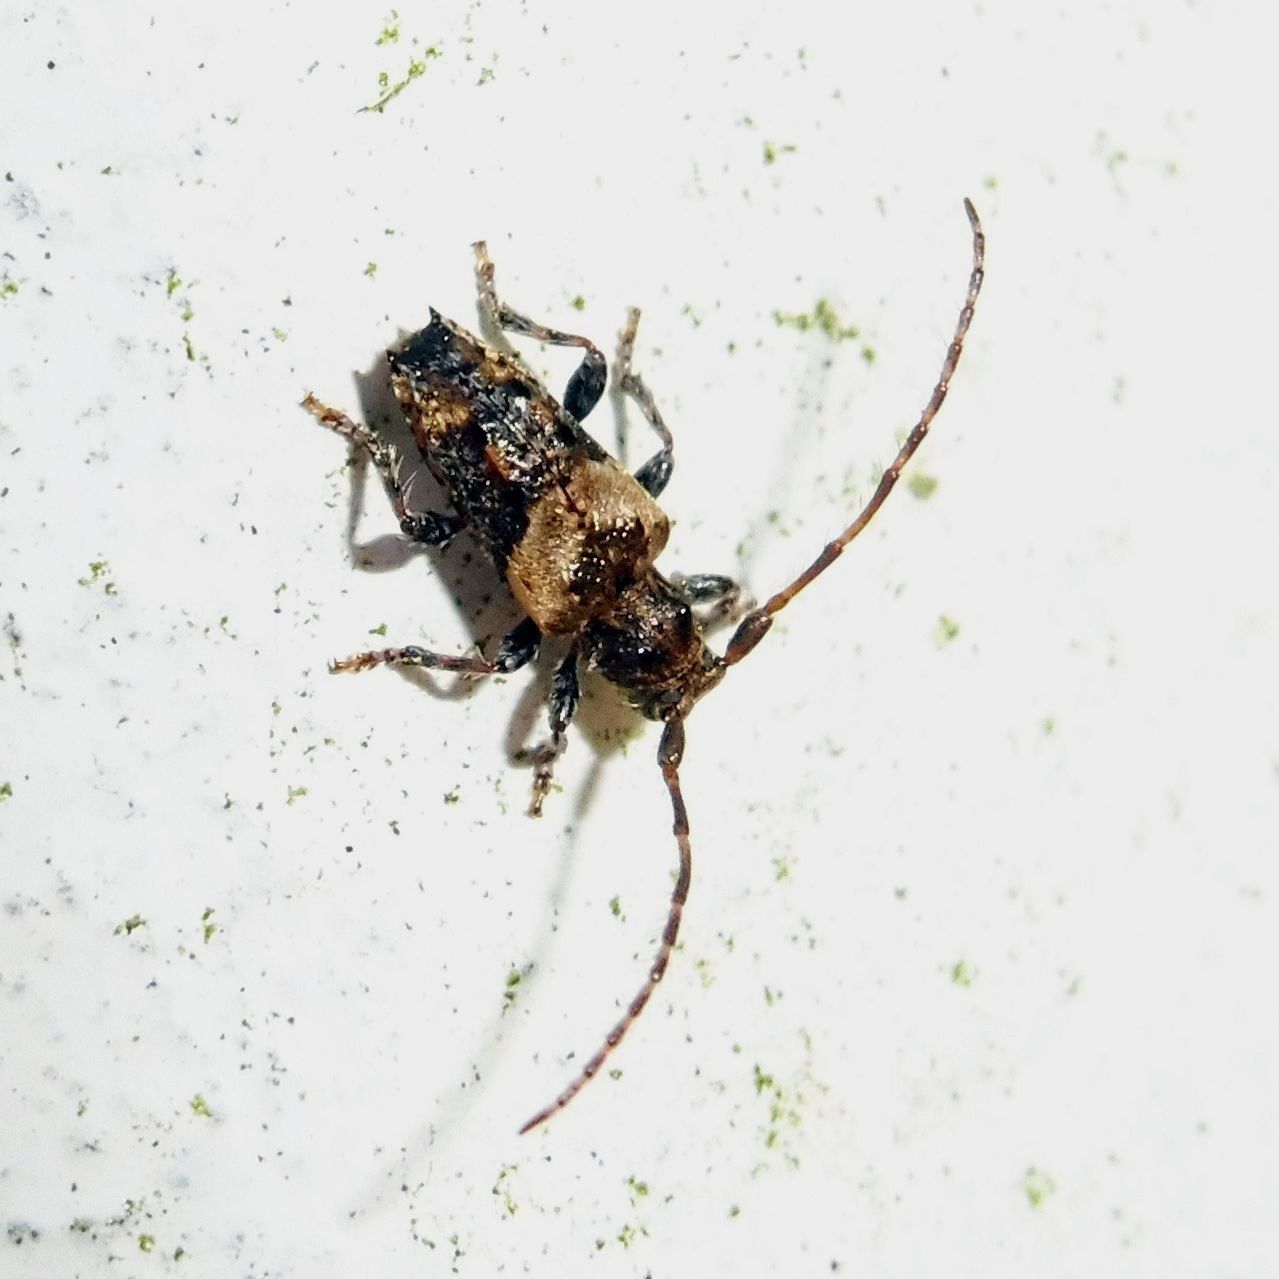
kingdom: Animalia
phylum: Arthropoda
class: Insecta
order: Coleoptera
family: Cerambycidae
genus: Pogonocherus
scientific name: Pogonocherus hispidus
